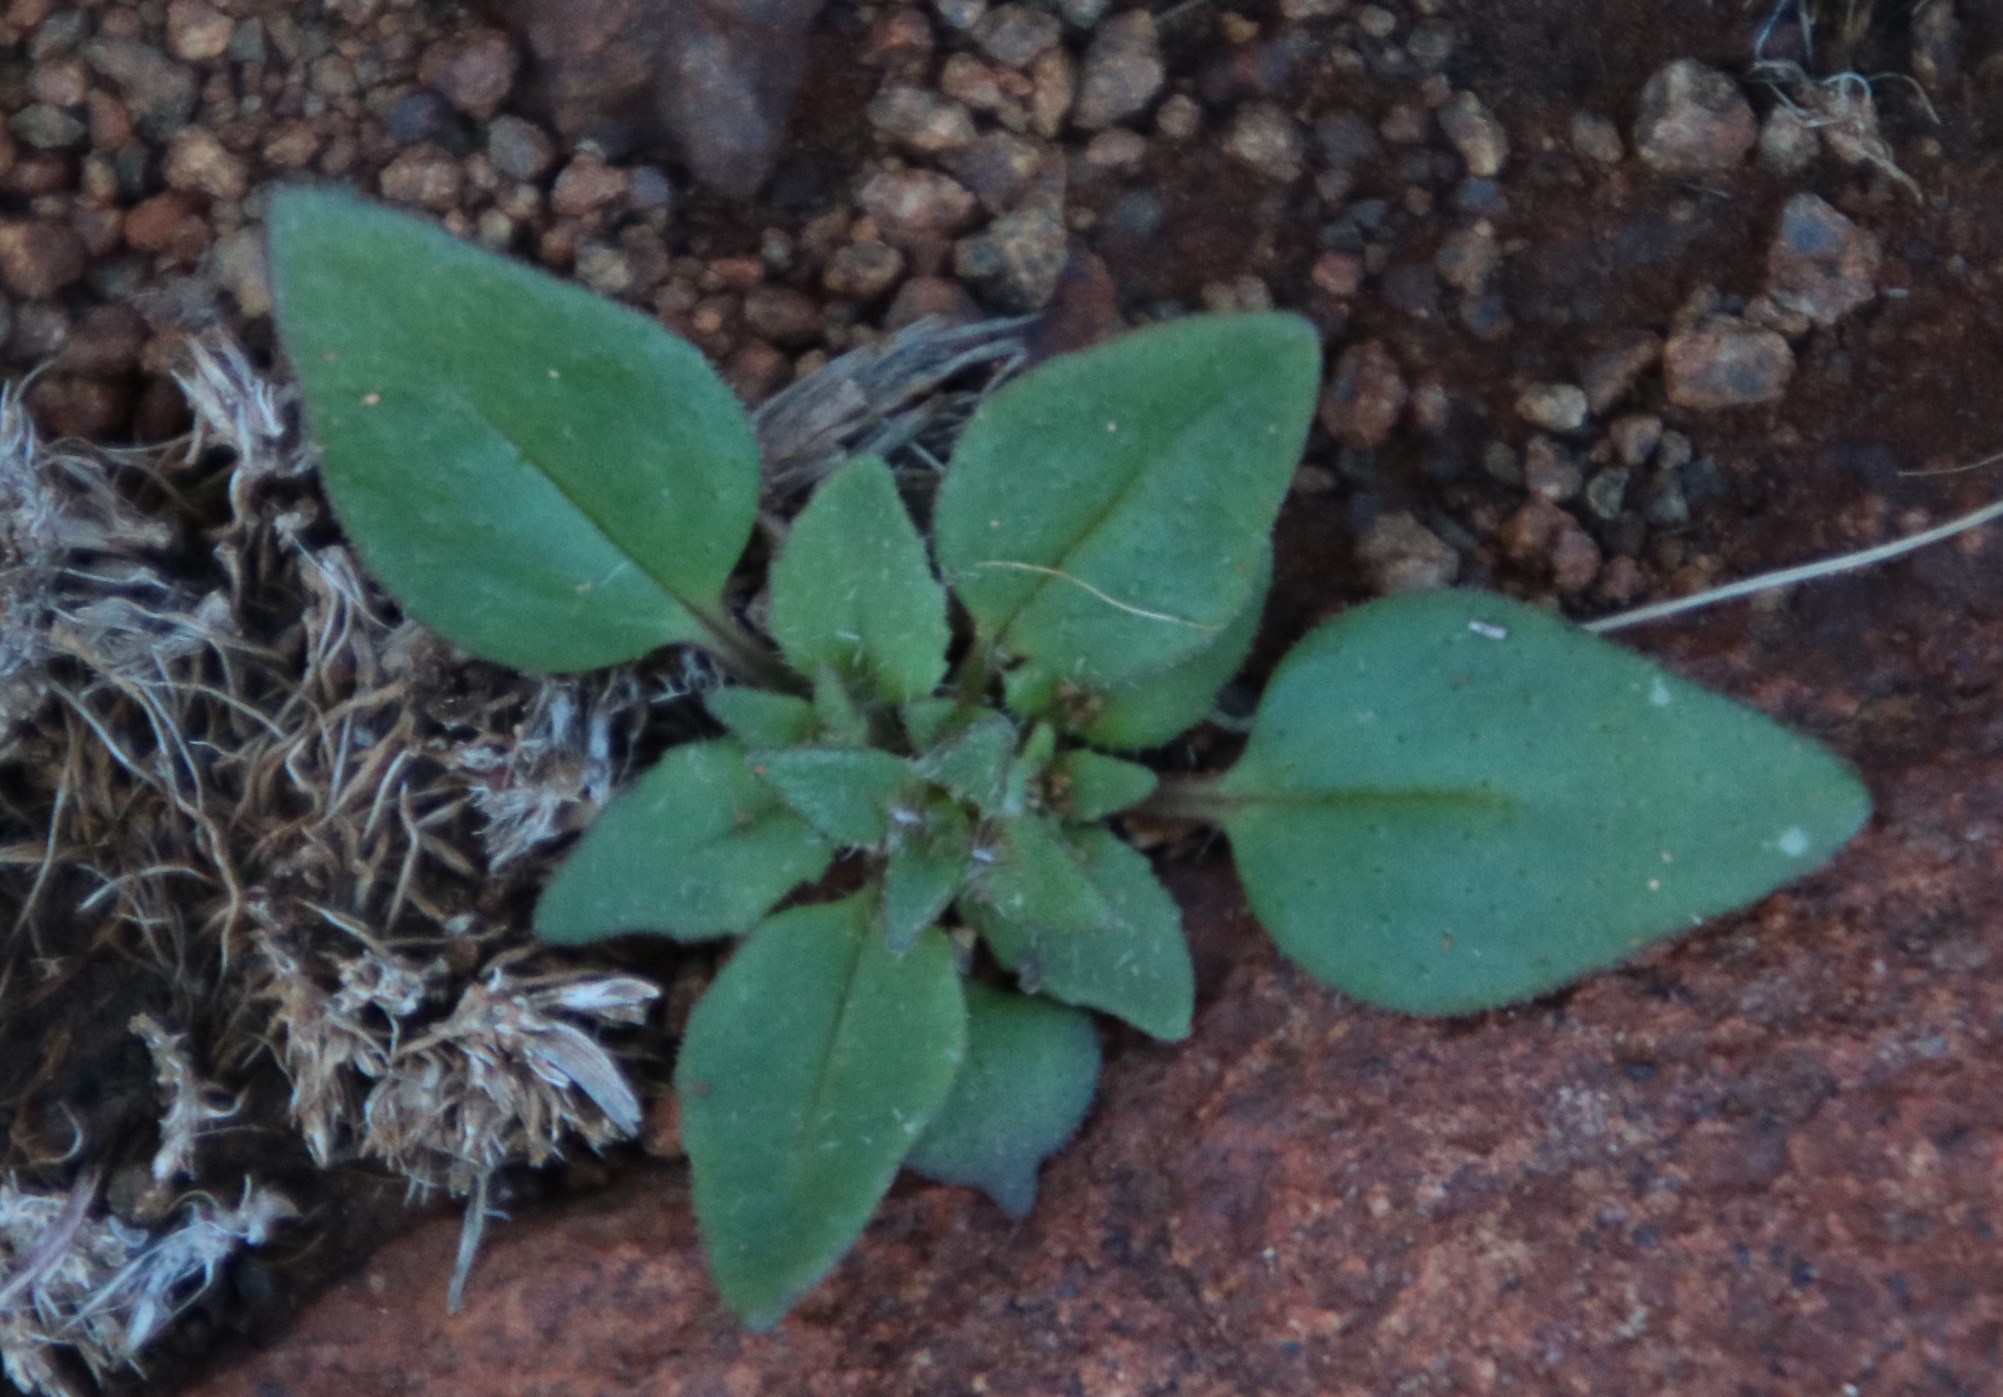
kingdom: Plantae
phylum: Tracheophyta
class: Magnoliopsida
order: Lamiales
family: Scrophulariaceae
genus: Manulea
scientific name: Manulea fragrans
